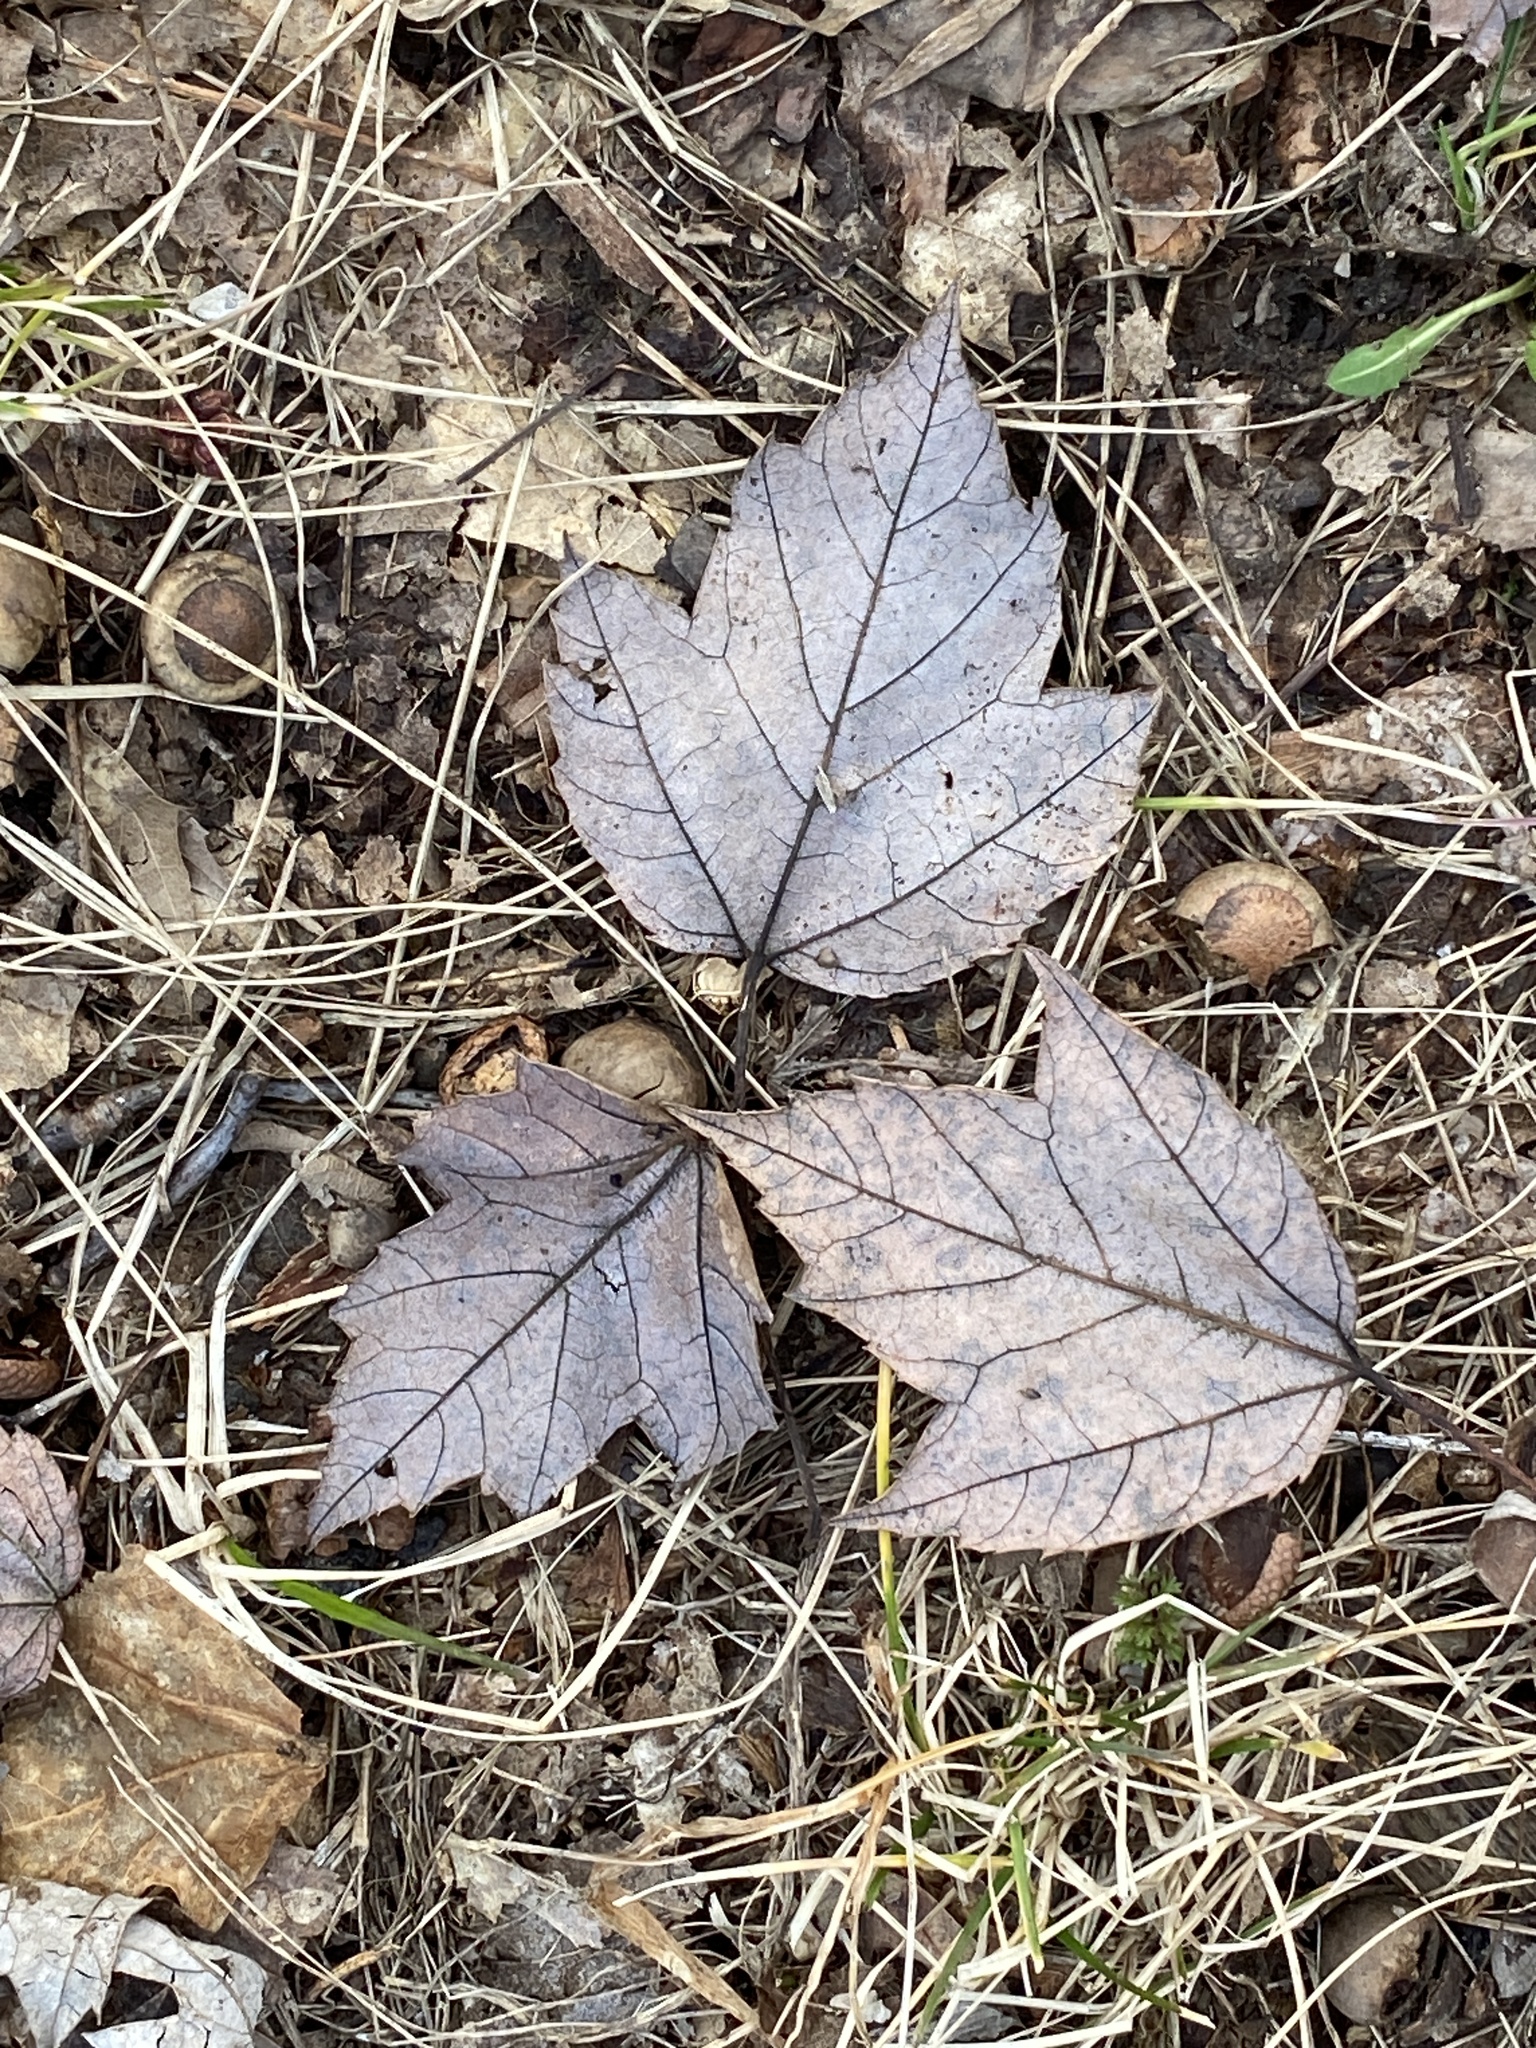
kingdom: Plantae
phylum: Tracheophyta
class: Magnoliopsida
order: Sapindales
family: Sapindaceae
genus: Acer
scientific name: Acer rubrum
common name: Red maple
